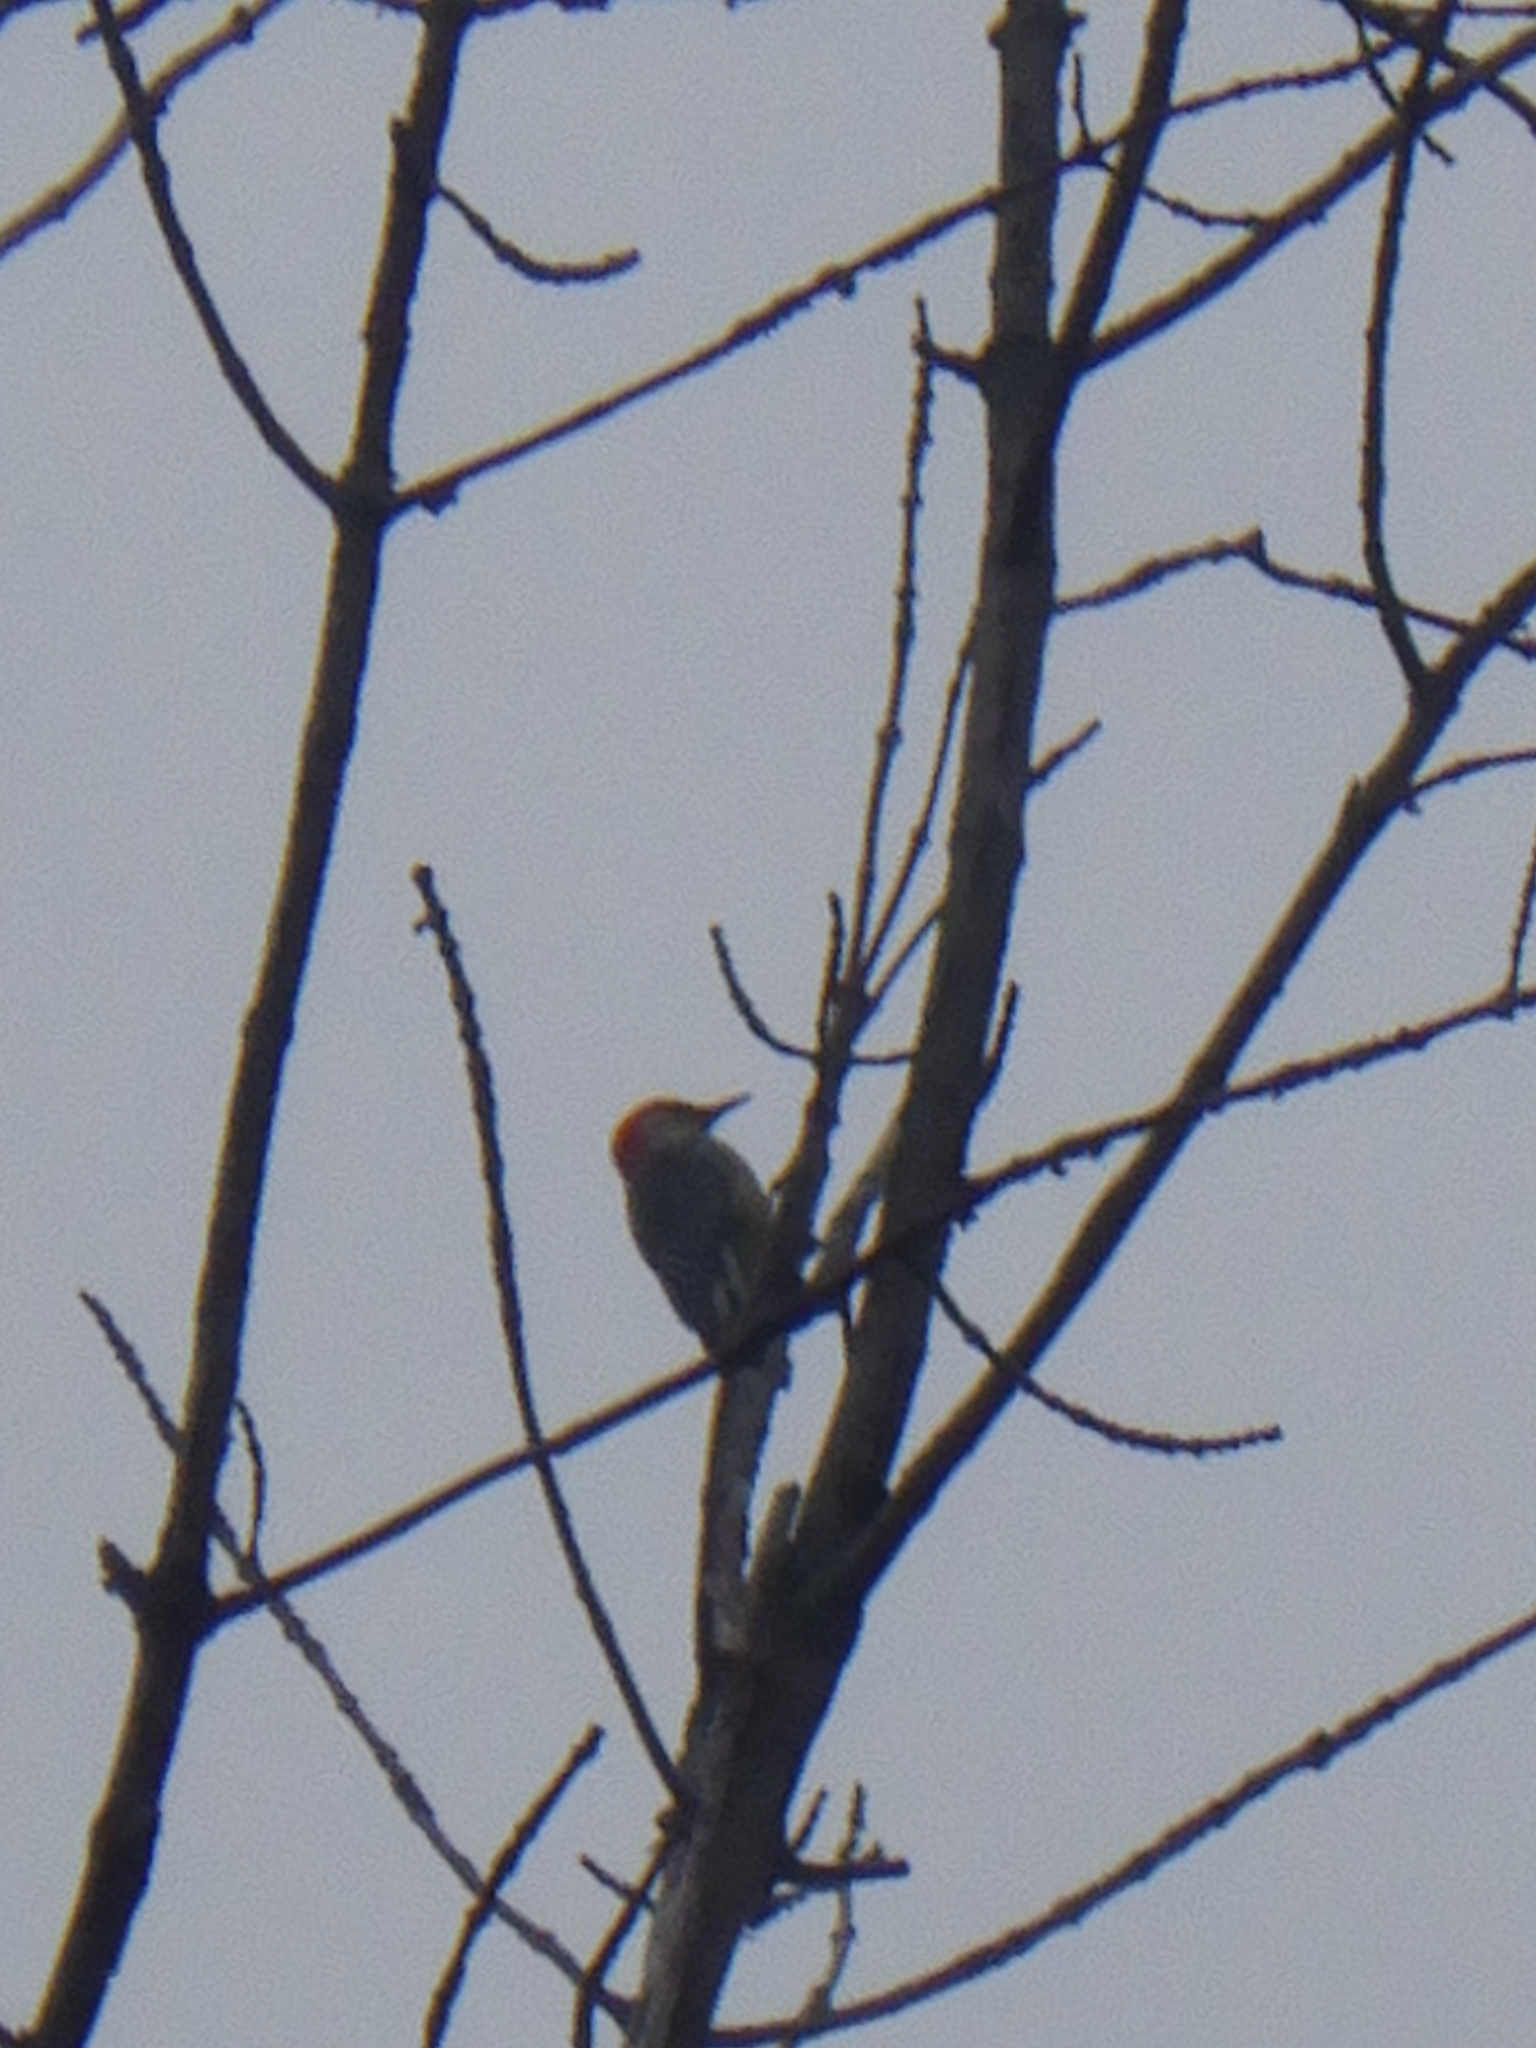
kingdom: Animalia
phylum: Chordata
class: Aves
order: Piciformes
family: Picidae
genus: Melanerpes
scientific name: Melanerpes carolinus
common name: Red-bellied woodpecker
